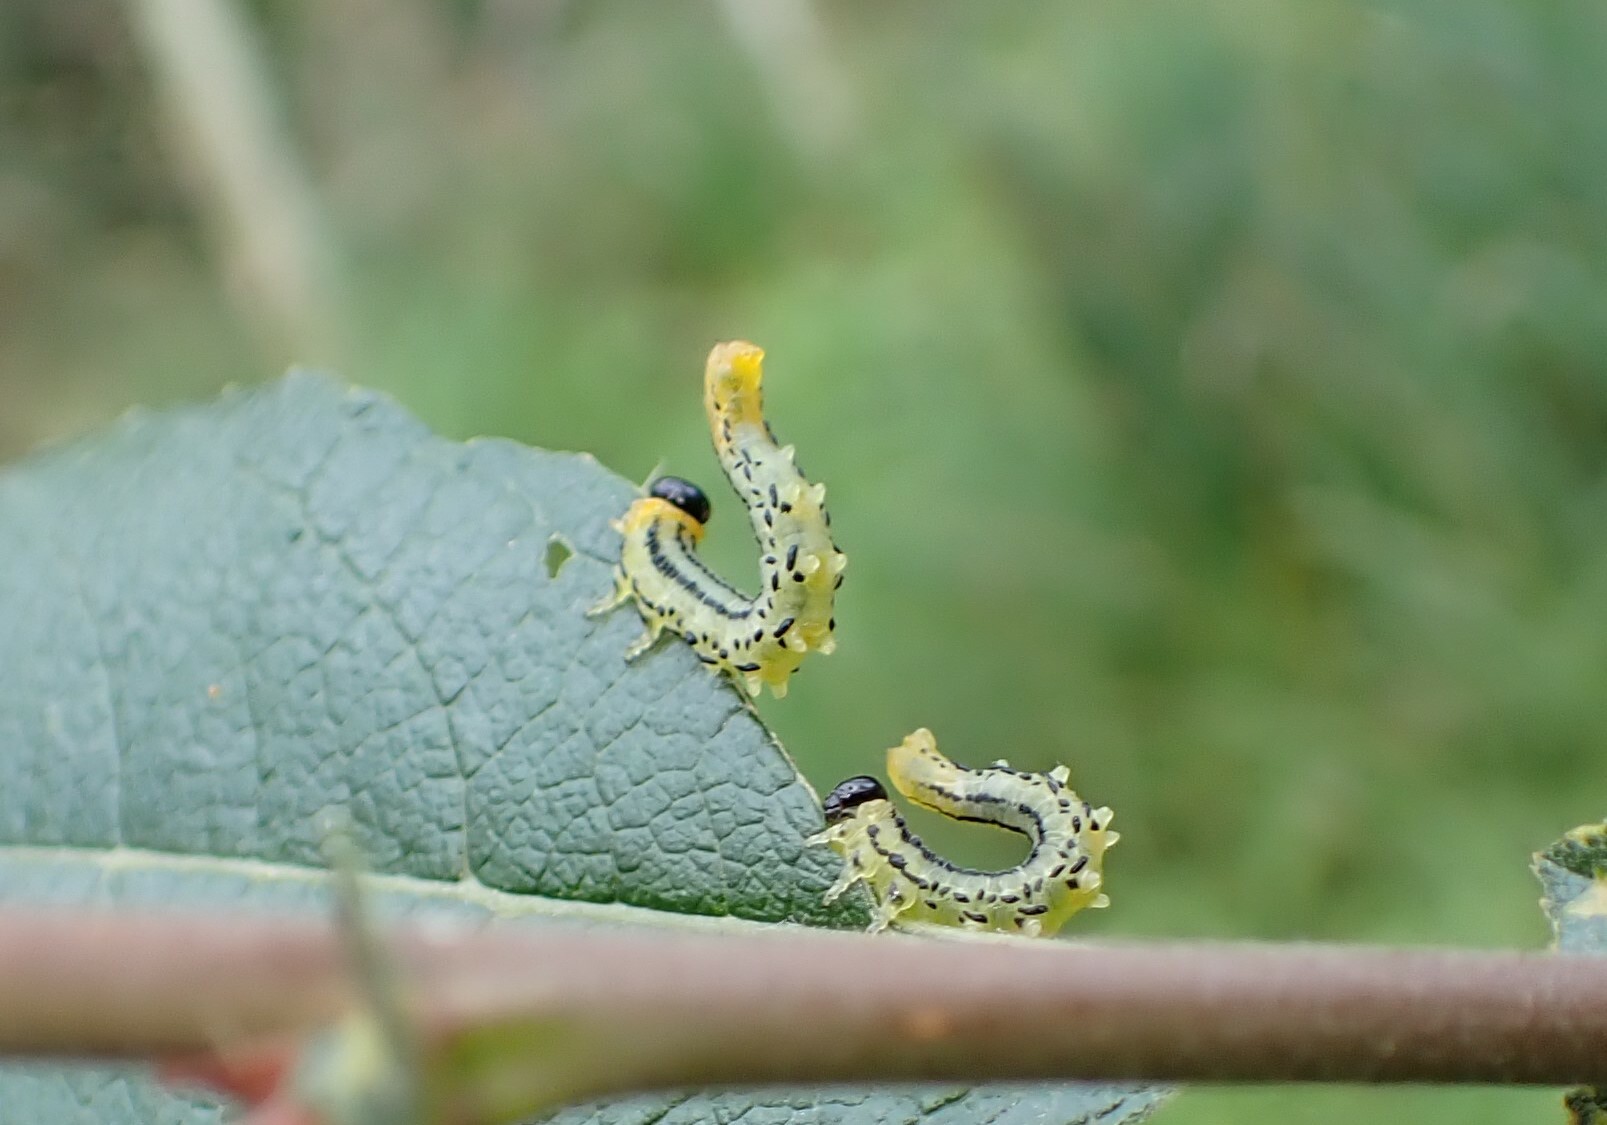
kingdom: Animalia
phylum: Arthropoda
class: Insecta
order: Hymenoptera
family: Tenthredinidae
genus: Nematus
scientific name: Nematus pavidus
